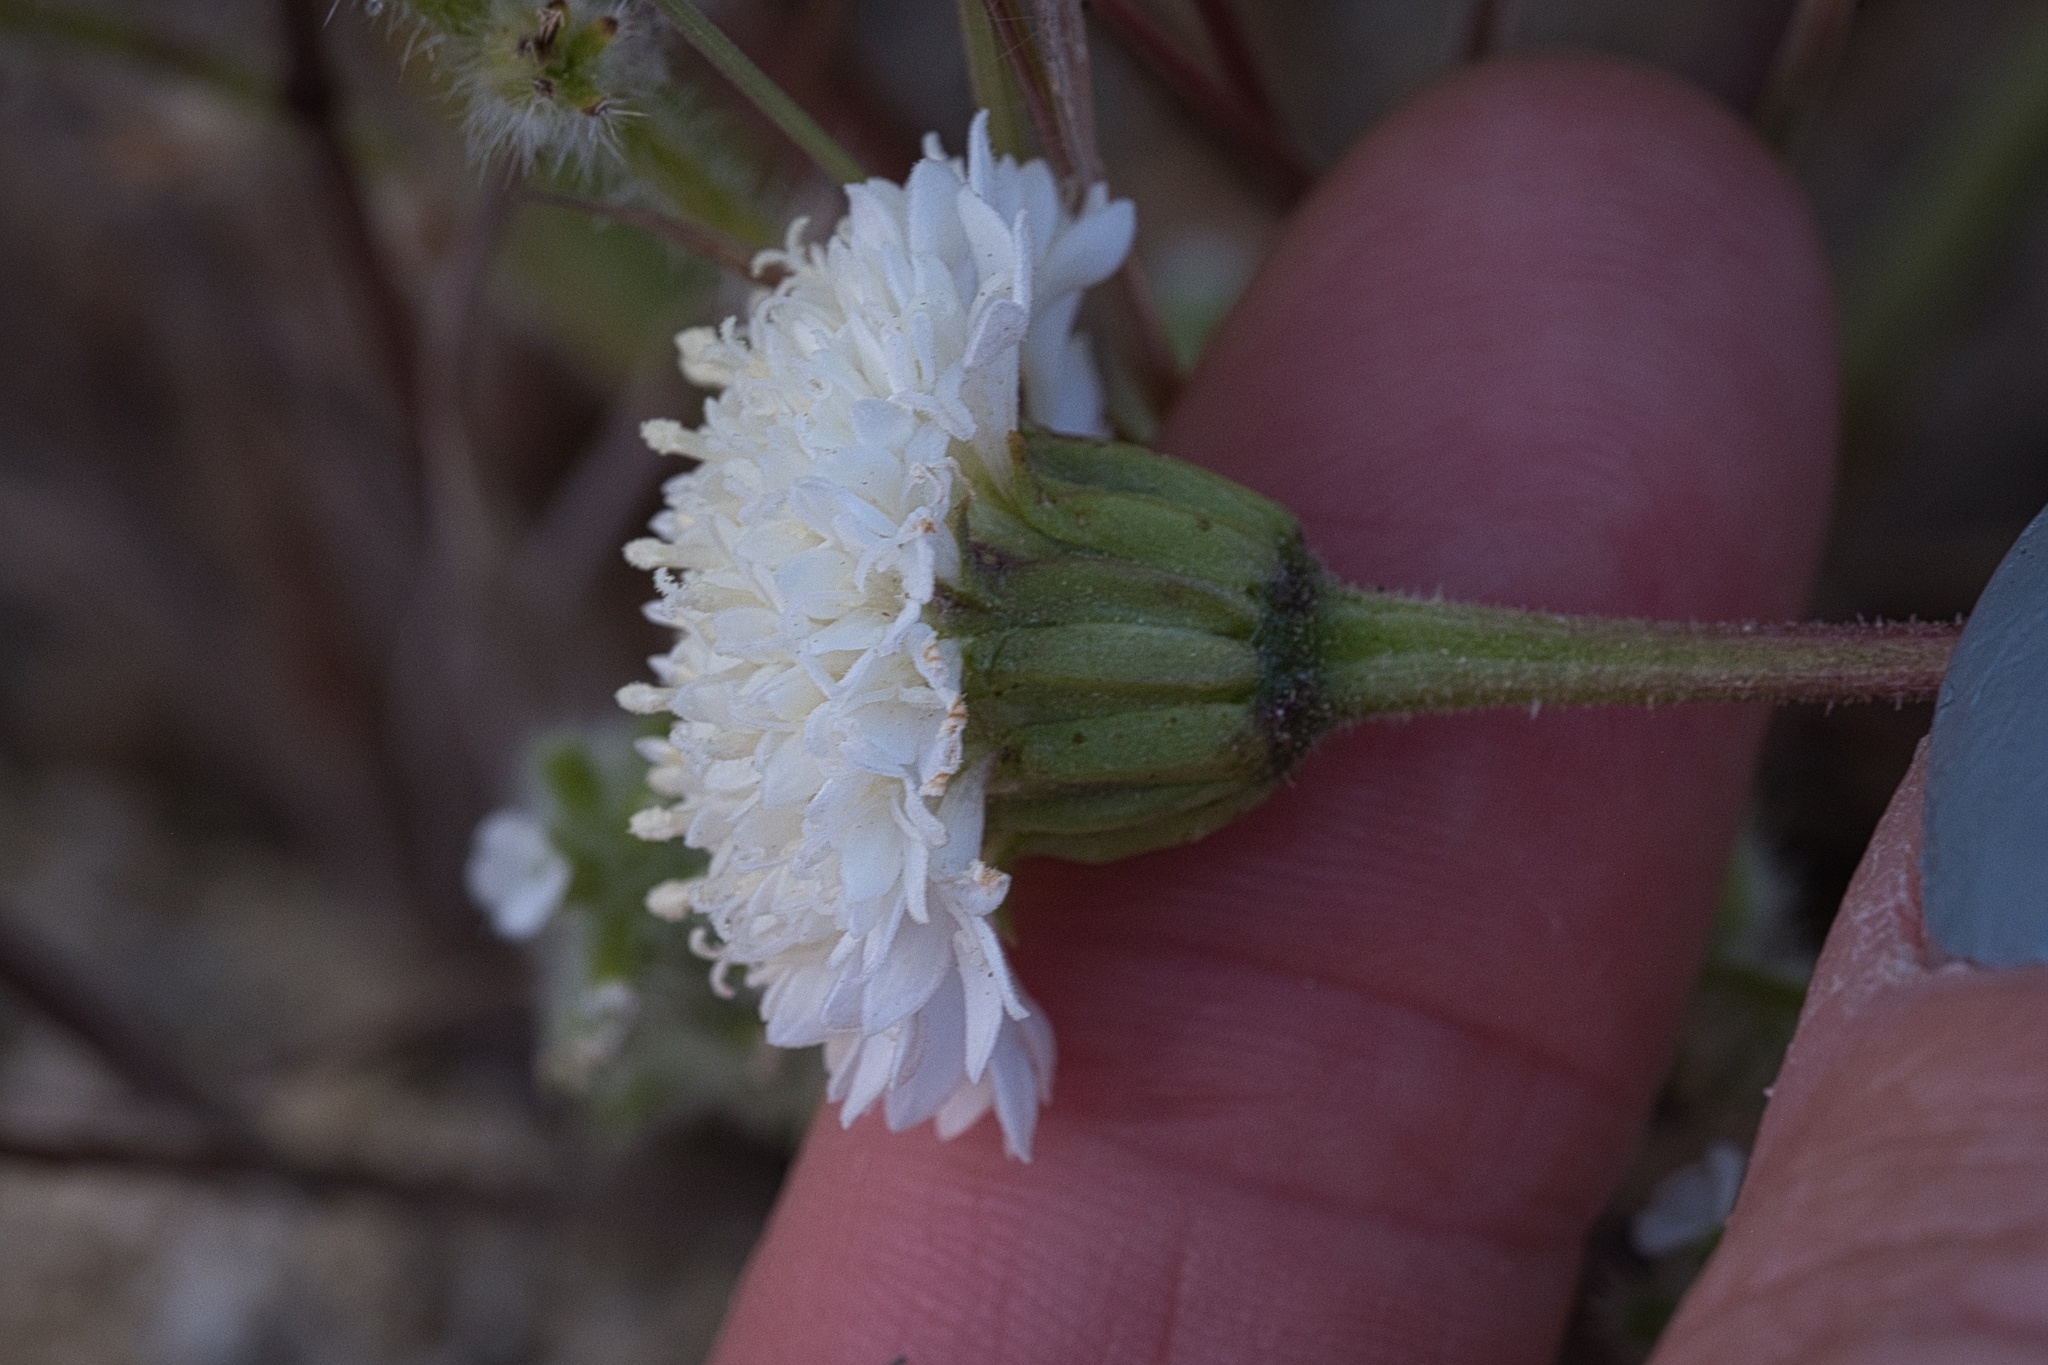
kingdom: Plantae
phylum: Tracheophyta
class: Magnoliopsida
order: Asterales
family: Asteraceae
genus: Chaenactis
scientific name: Chaenactis fremontii
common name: Fremont pincushion
